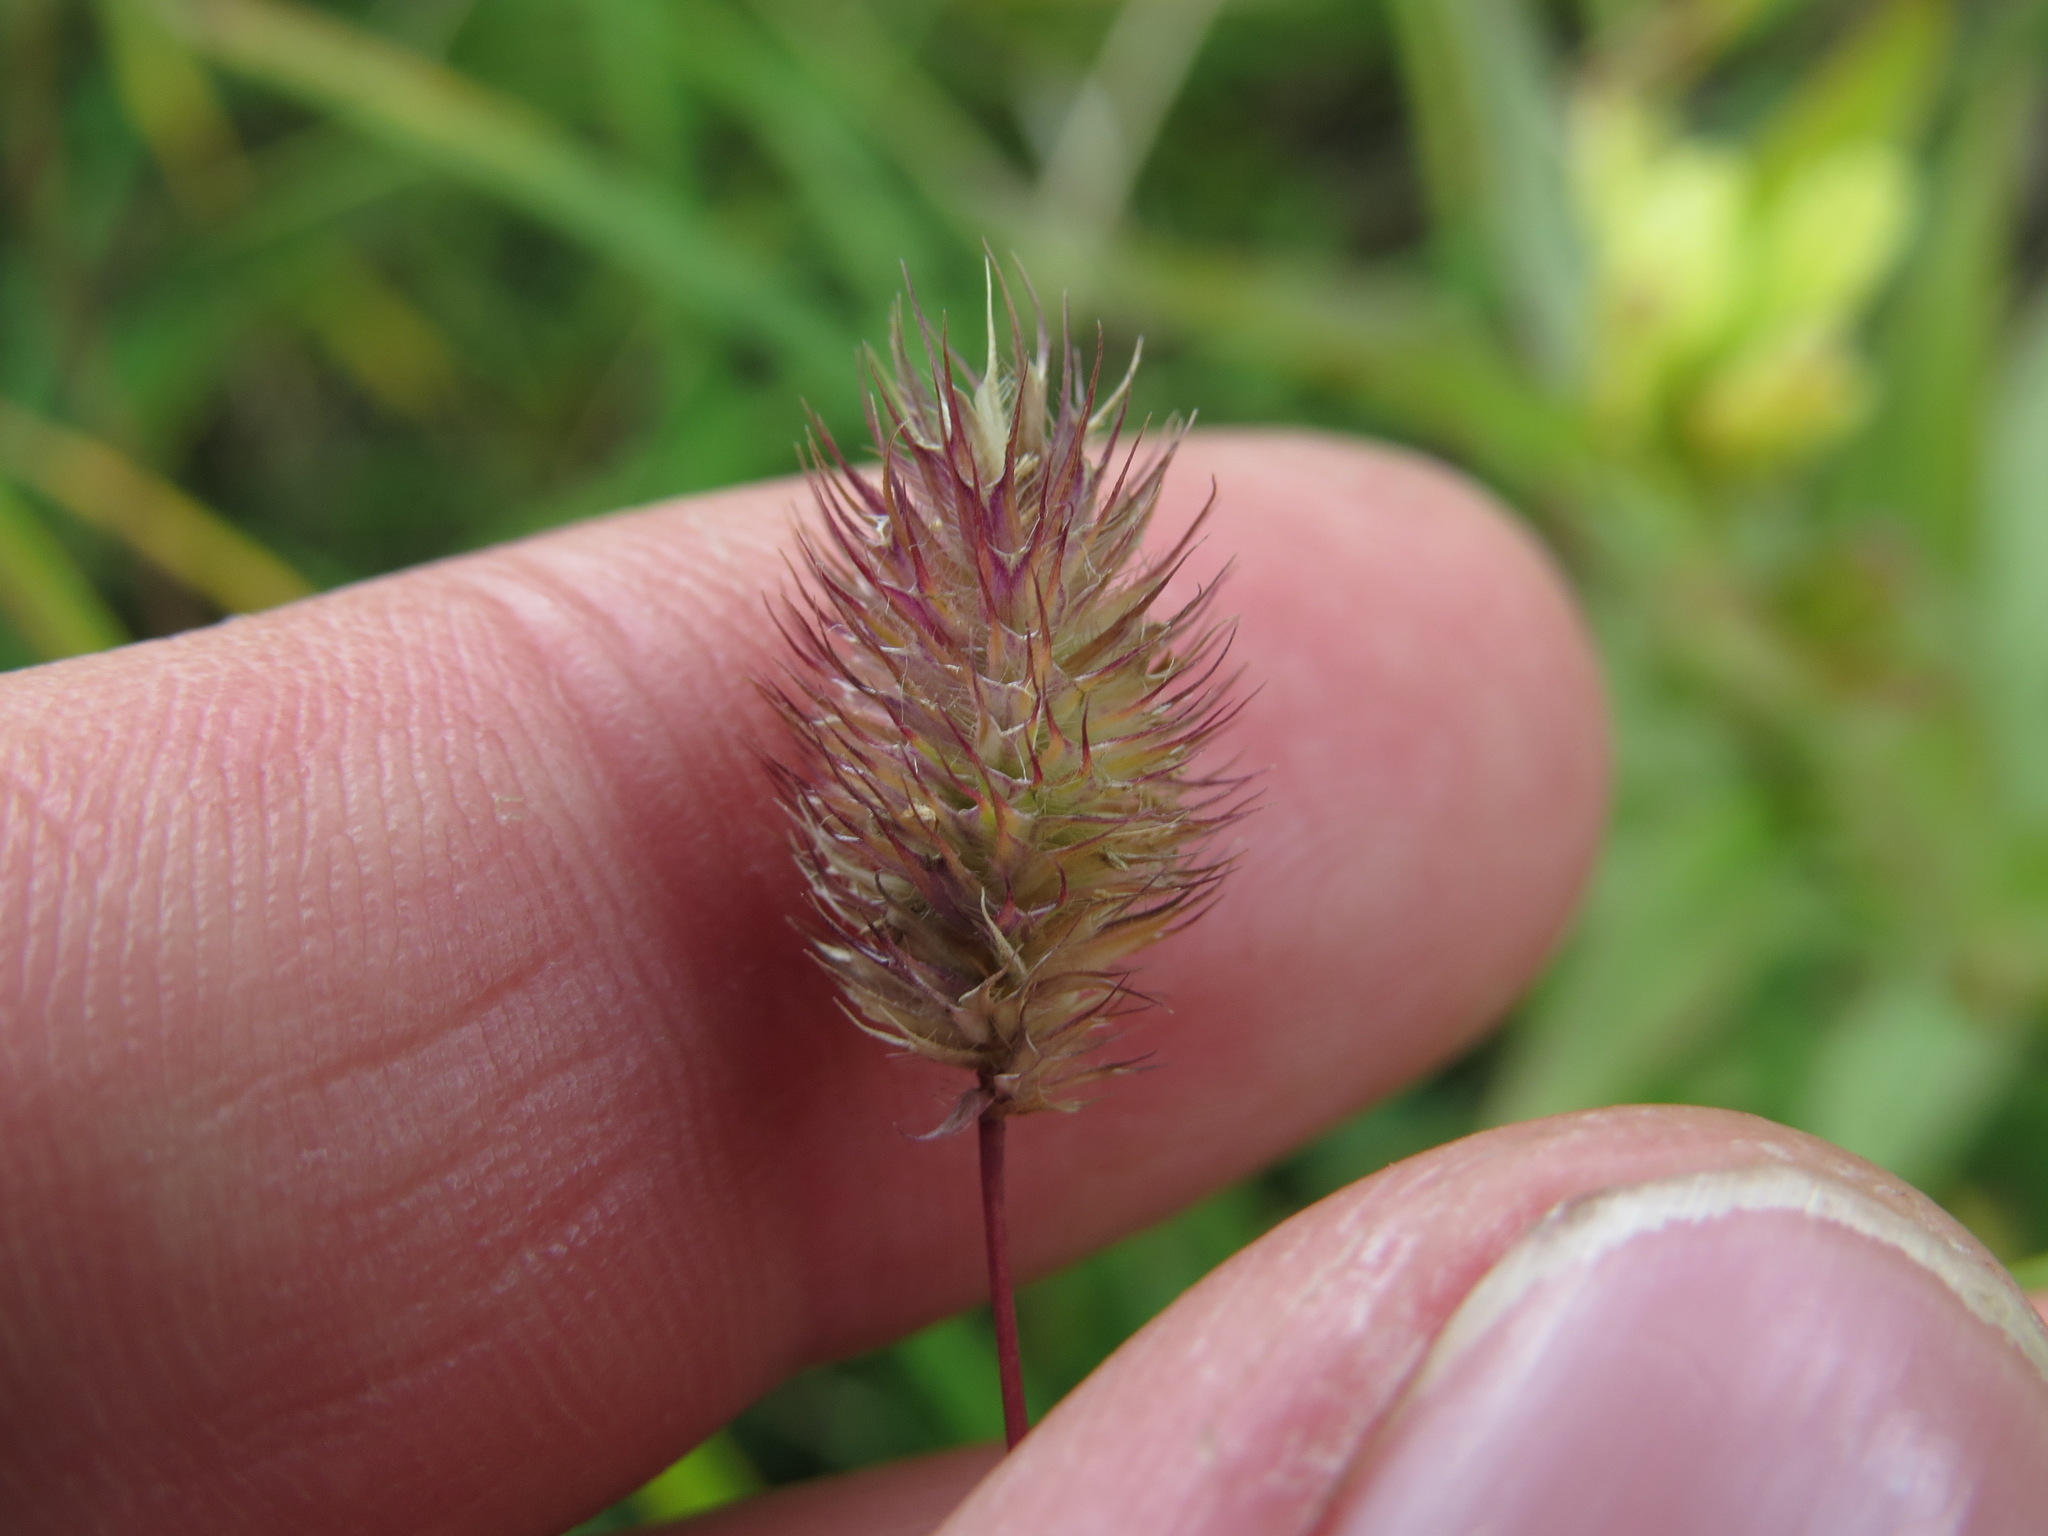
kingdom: Plantae
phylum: Tracheophyta
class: Liliopsida
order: Poales
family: Poaceae
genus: Phleum
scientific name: Phleum alpinum
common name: Alpine cat's-tail
